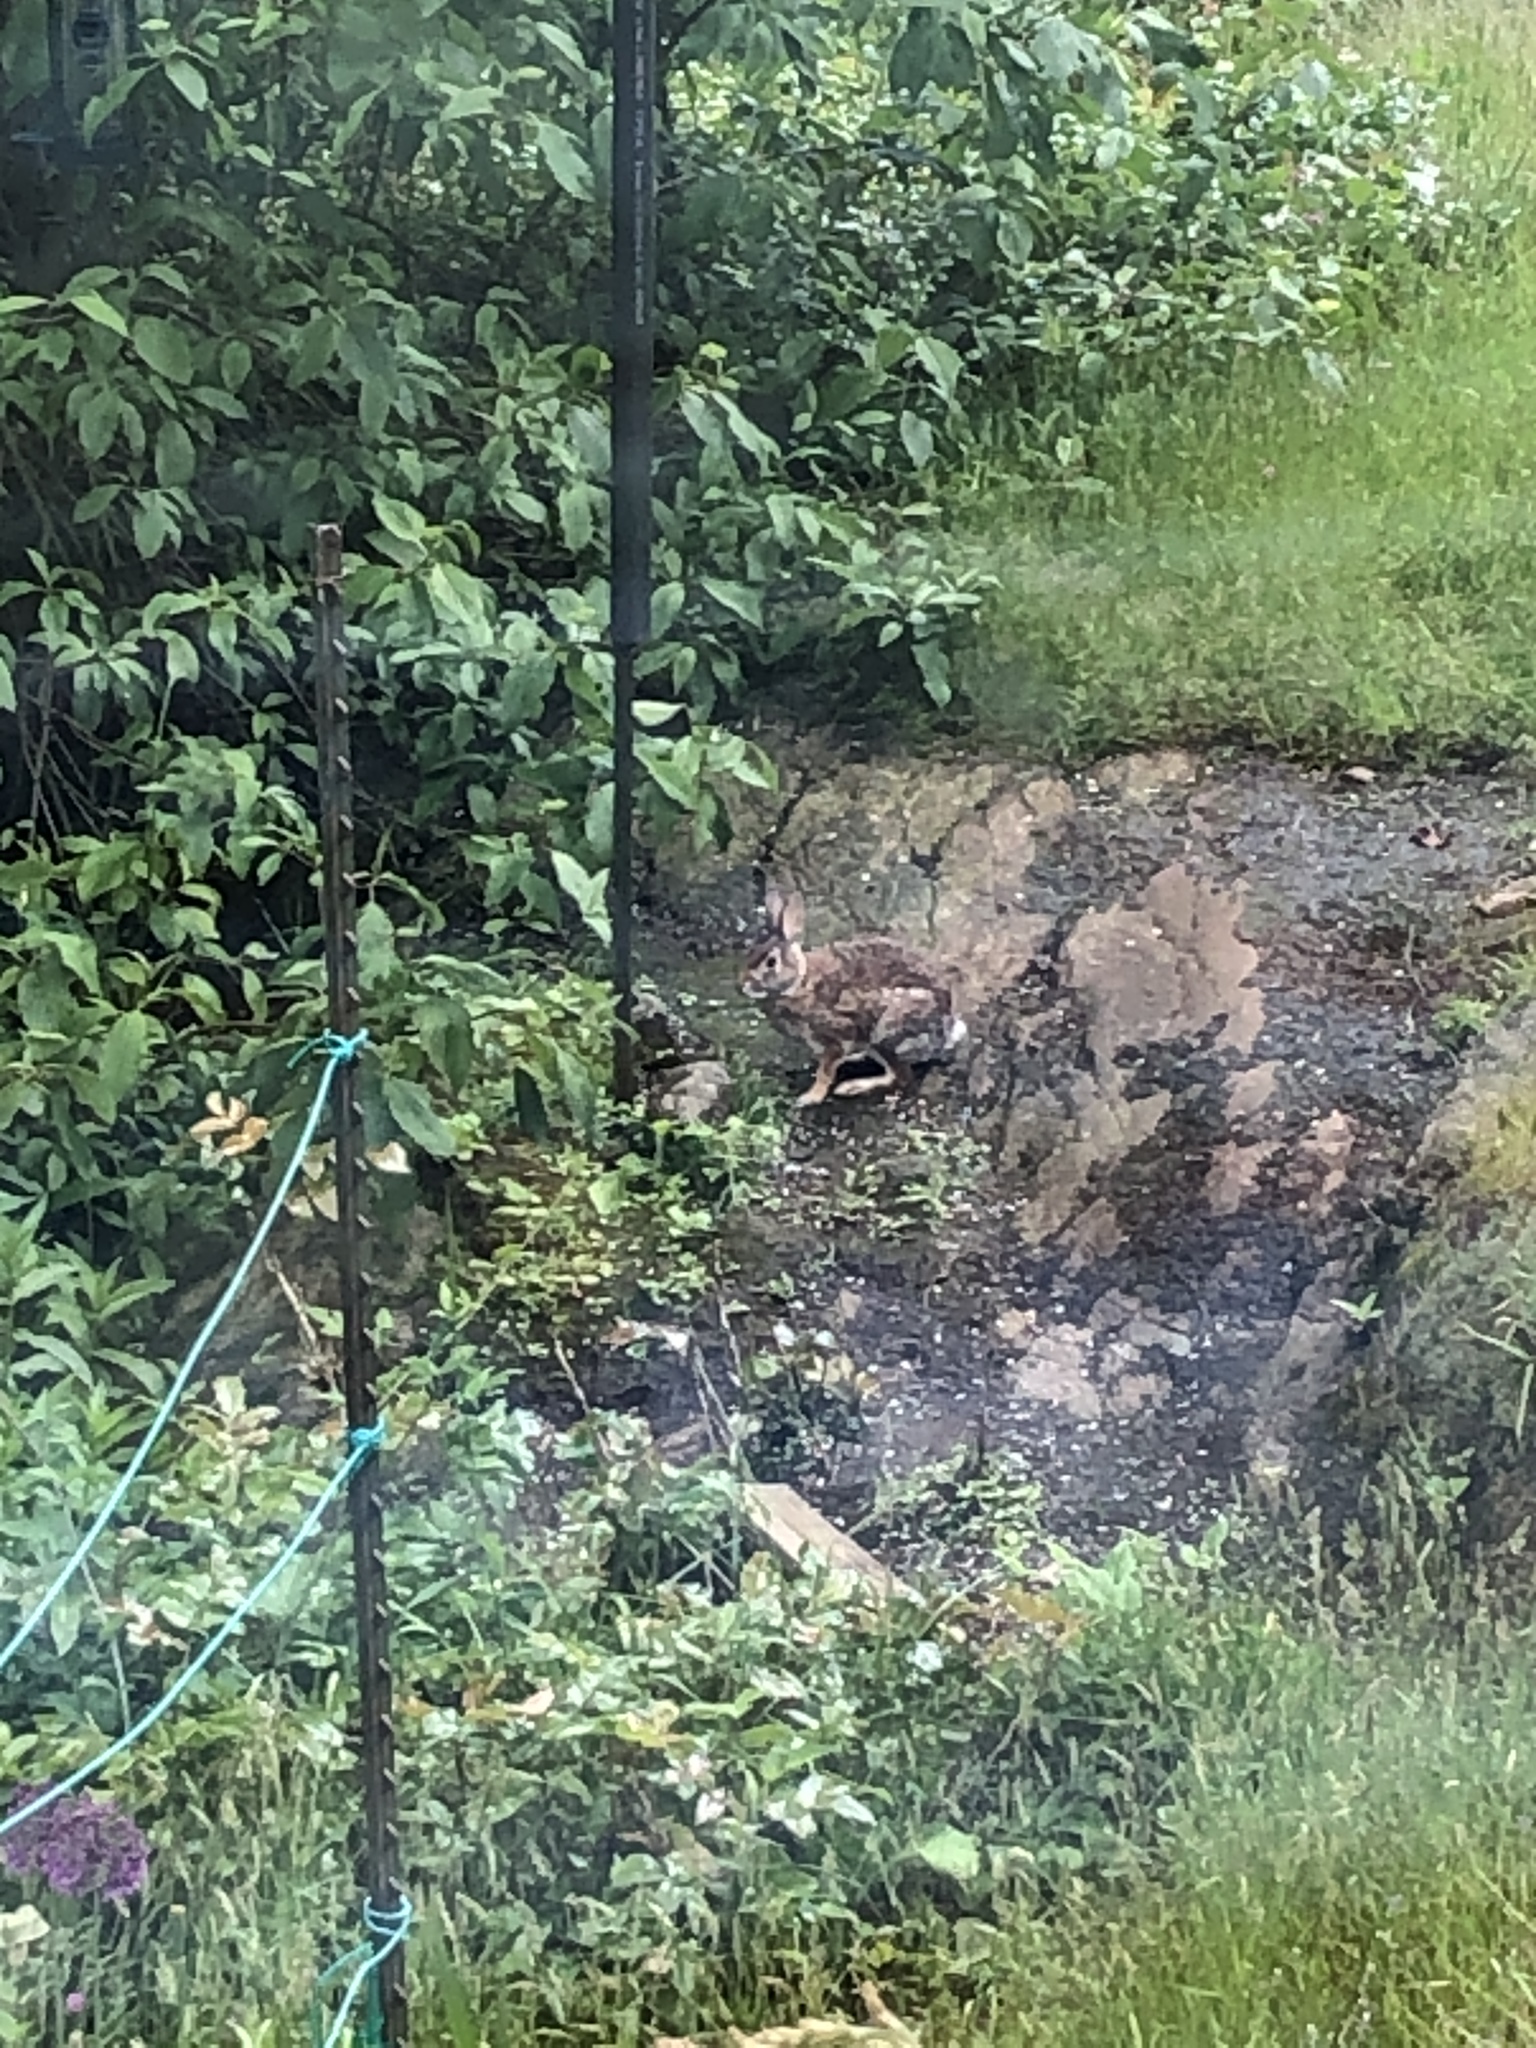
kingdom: Animalia
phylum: Chordata
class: Mammalia
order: Lagomorpha
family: Leporidae
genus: Sylvilagus
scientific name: Sylvilagus floridanus
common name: Eastern cottontail
